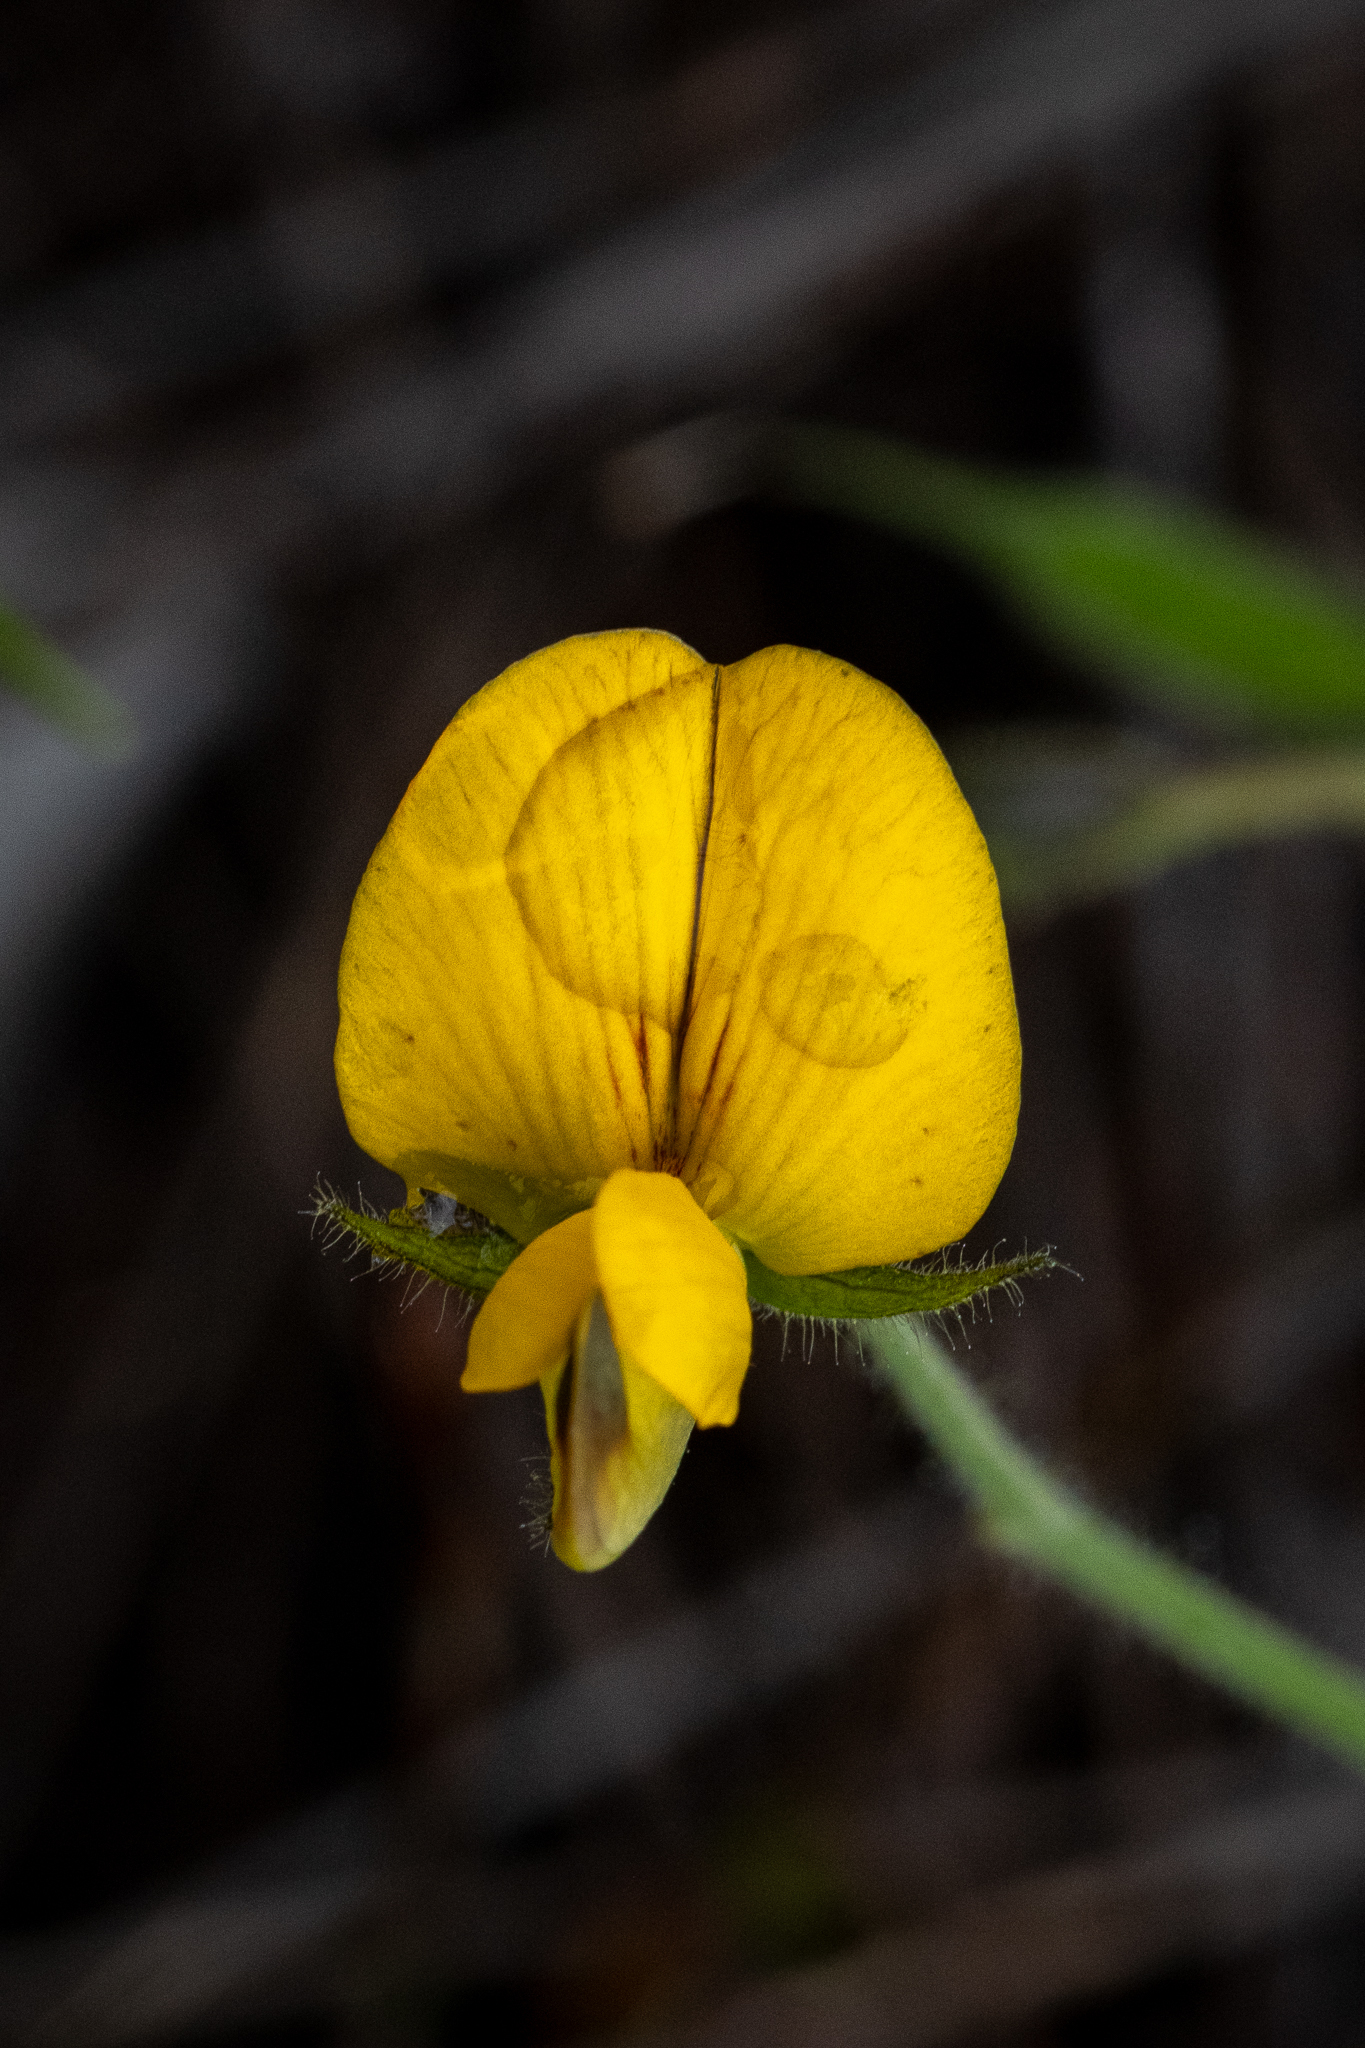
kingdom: Plantae
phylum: Tracheophyta
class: Magnoliopsida
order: Fabales
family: Fabaceae
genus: Bolusafra
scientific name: Bolusafra bituminosa
